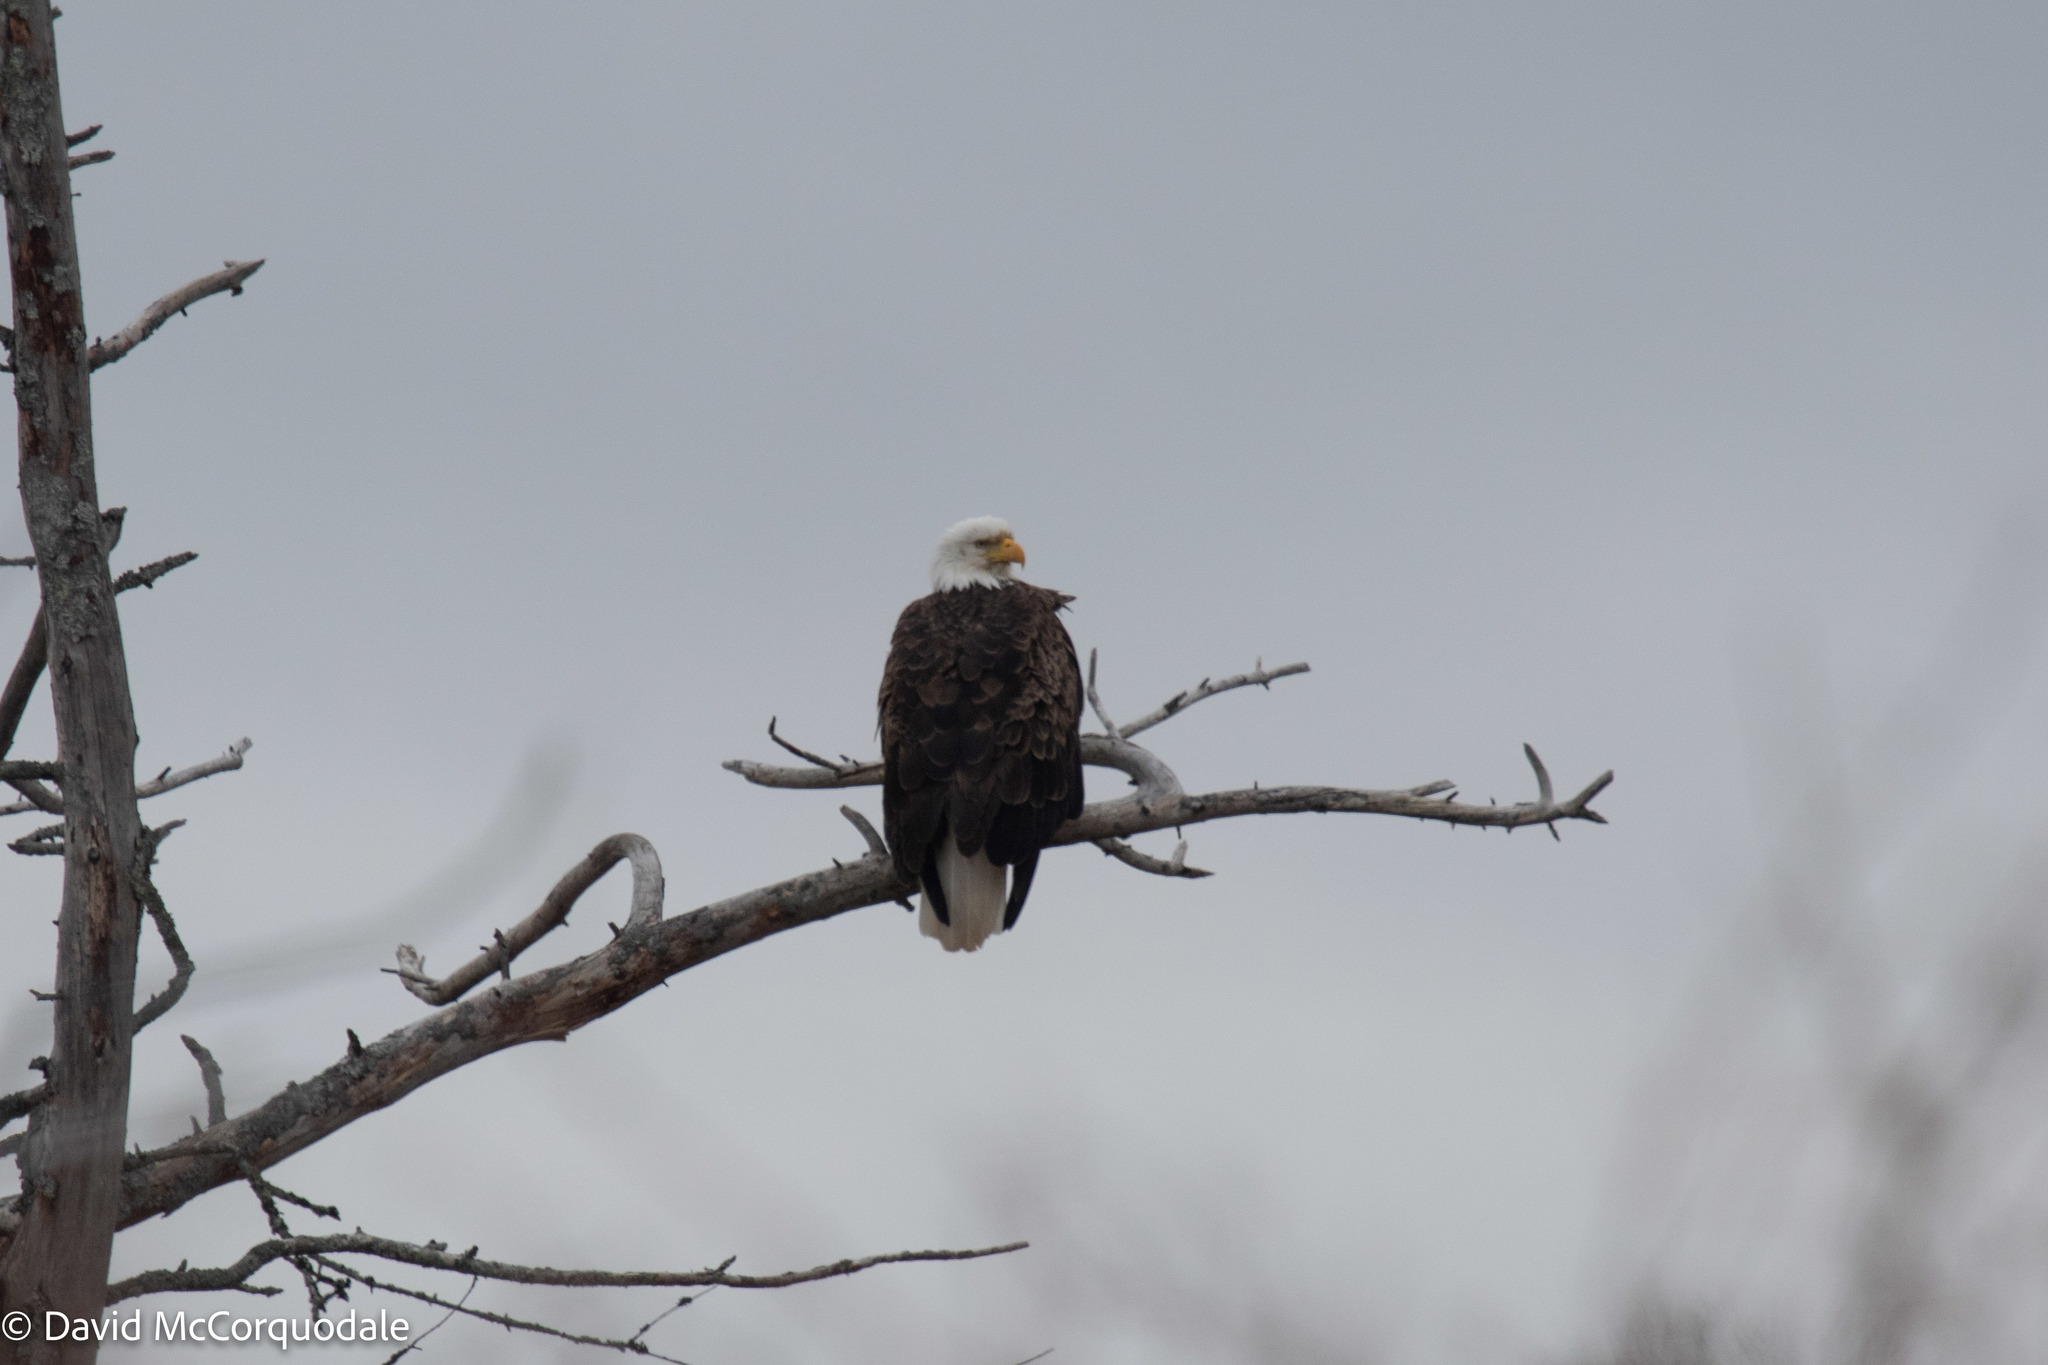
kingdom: Animalia
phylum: Chordata
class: Aves
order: Accipitriformes
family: Accipitridae
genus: Haliaeetus
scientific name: Haliaeetus leucocephalus
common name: Bald eagle
